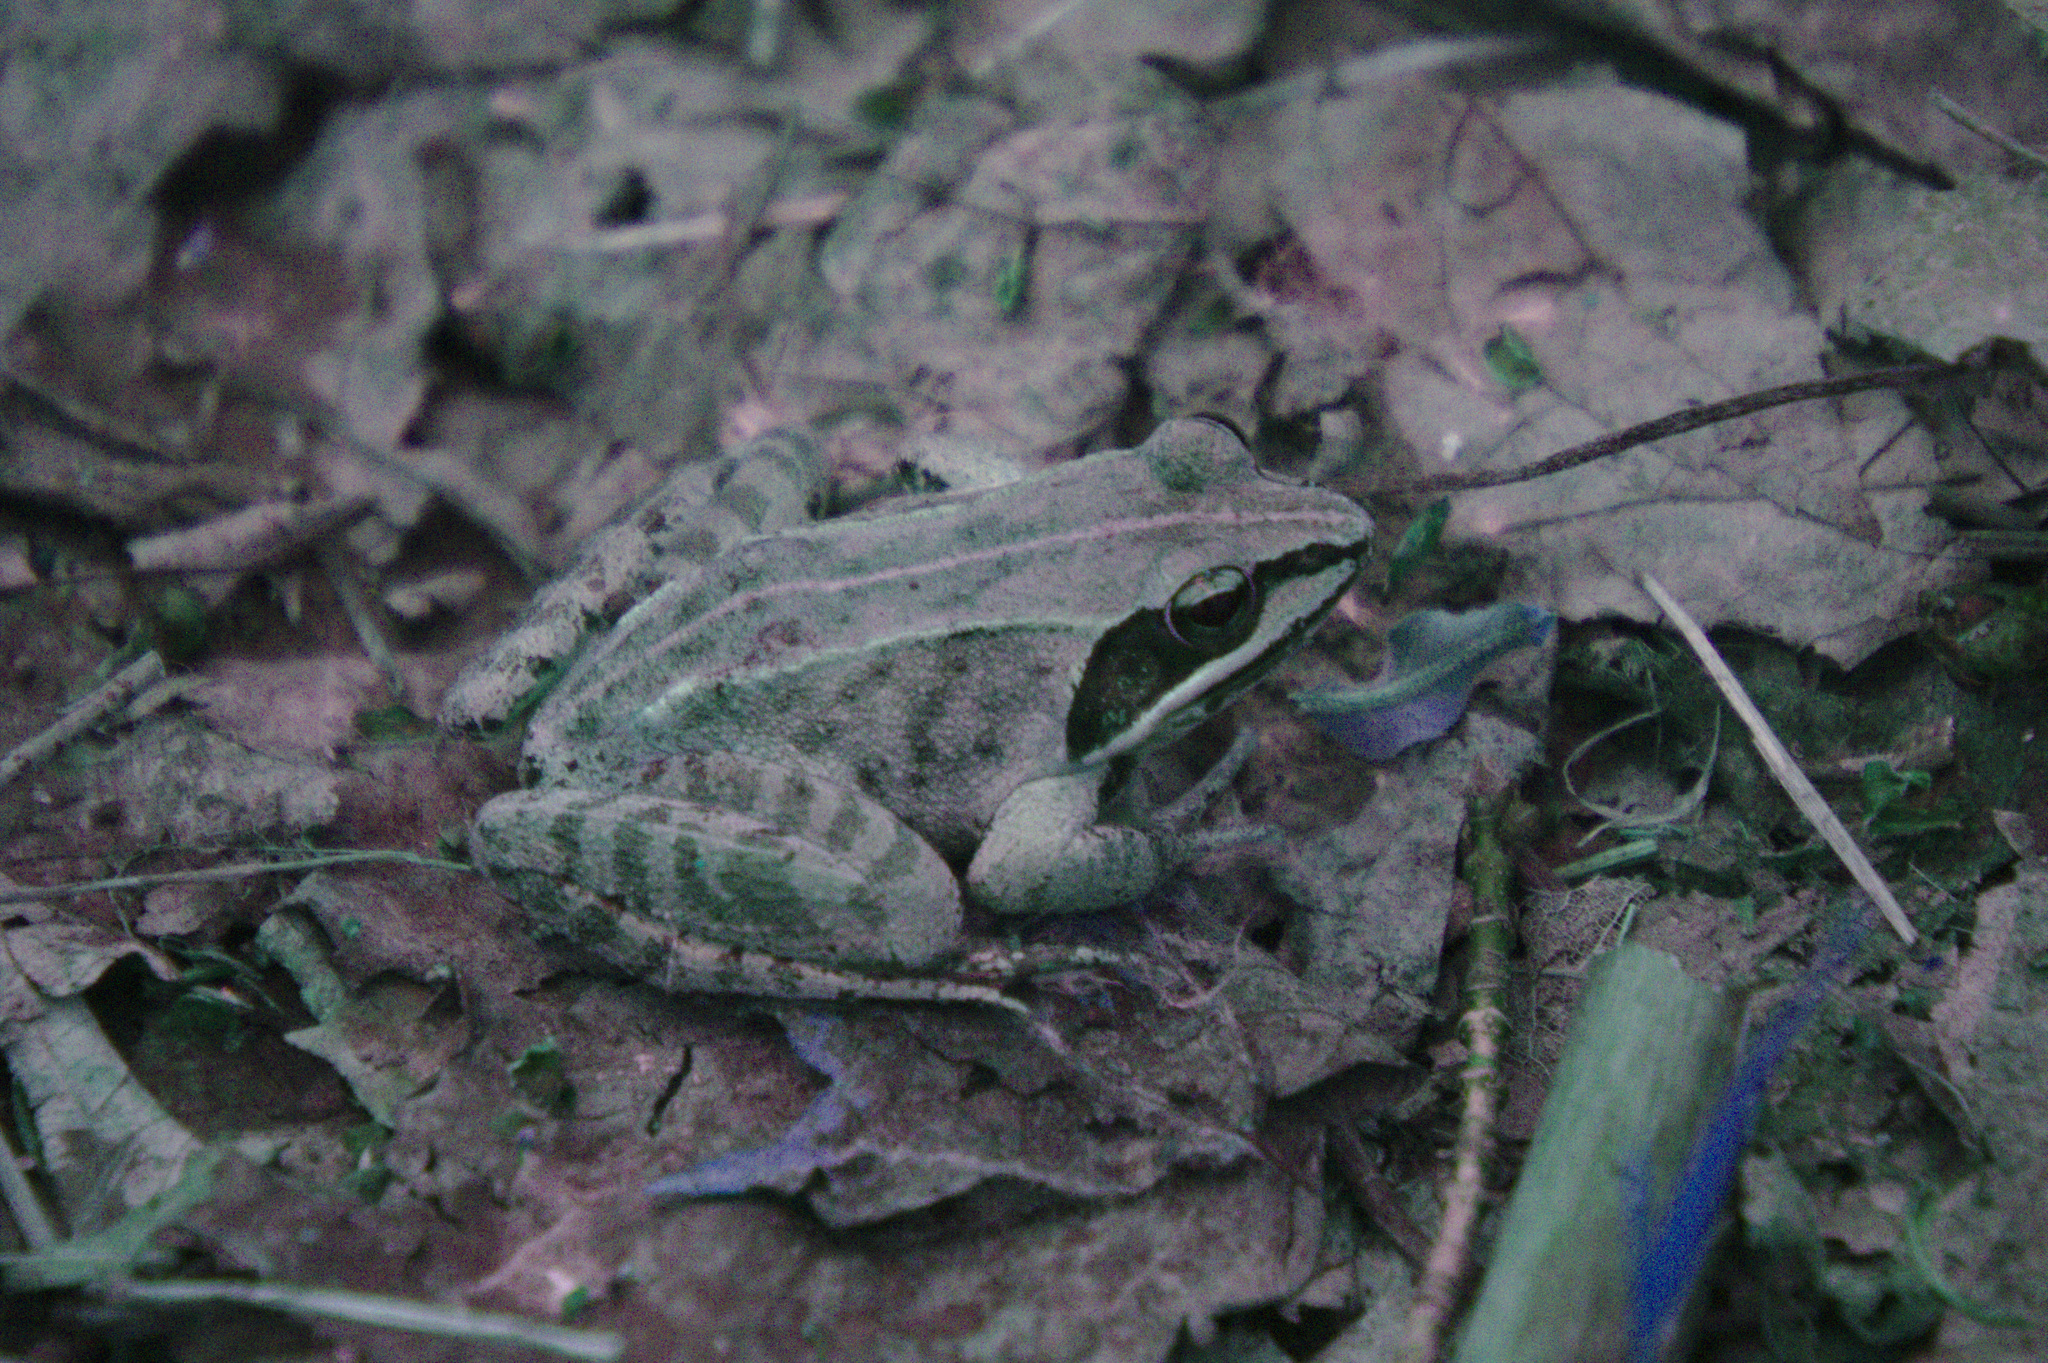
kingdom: Animalia
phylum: Chordata
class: Amphibia
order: Anura
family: Ranidae
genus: Lithobates
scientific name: Lithobates sylvaticus
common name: Wood frog
